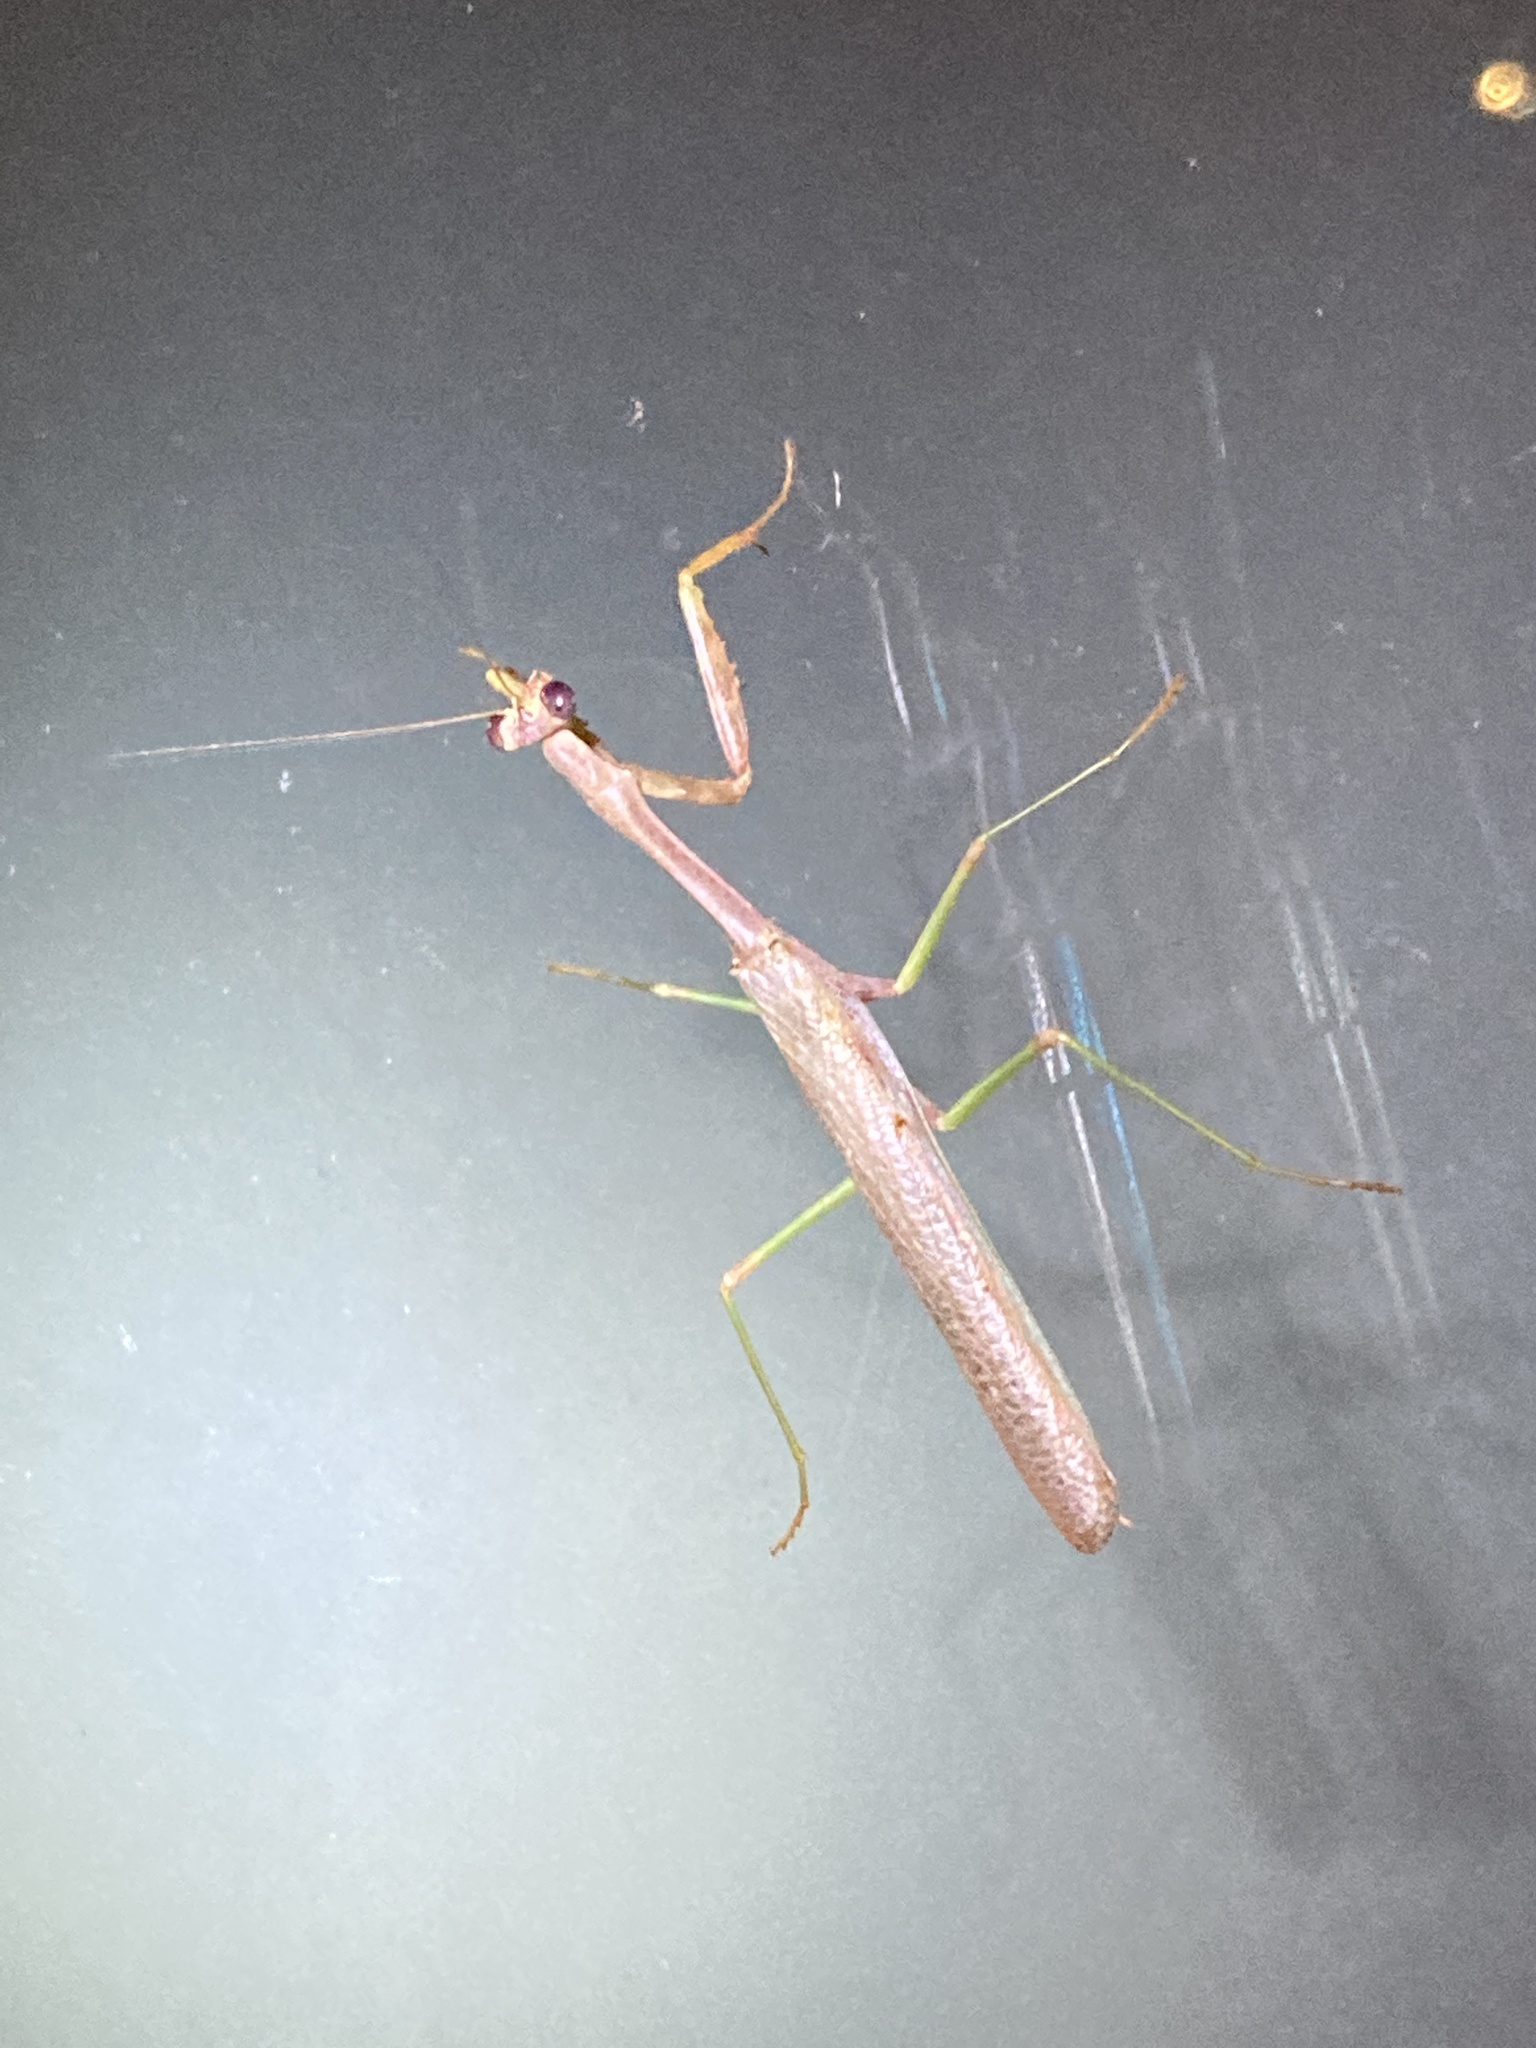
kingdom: Animalia
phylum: Arthropoda
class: Insecta
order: Mantodea
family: Mantidae
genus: Stagmomantis
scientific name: Stagmomantis carolina
